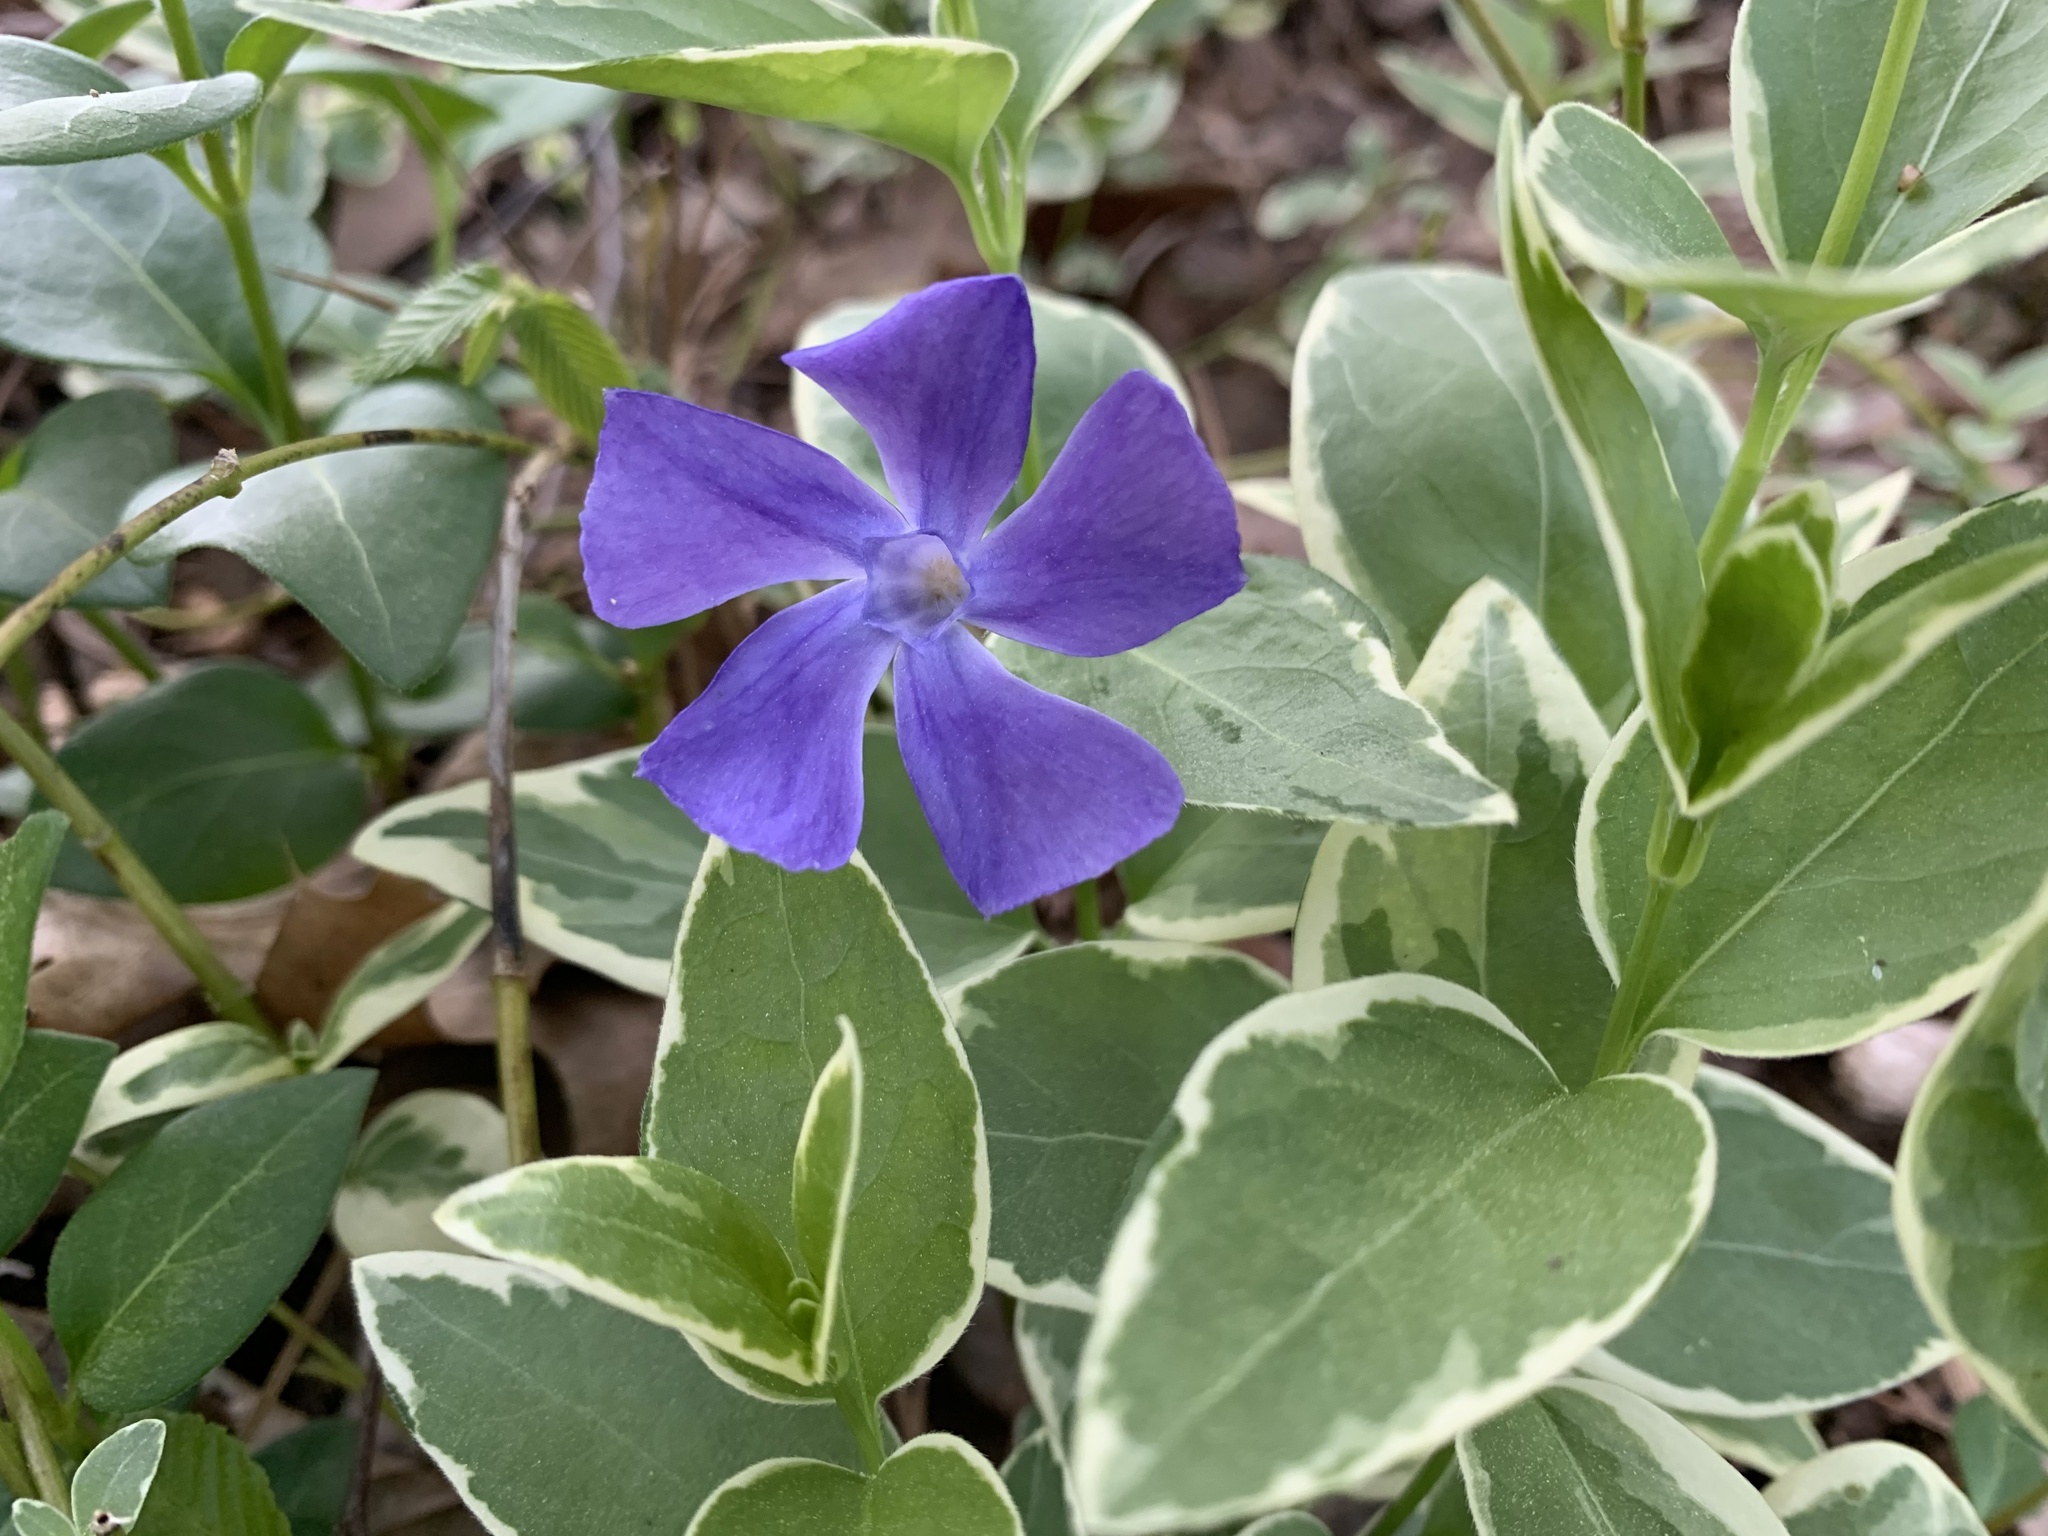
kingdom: Plantae
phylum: Tracheophyta
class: Magnoliopsida
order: Gentianales
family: Apocynaceae
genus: Vinca
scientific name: Vinca major
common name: Greater periwinkle
